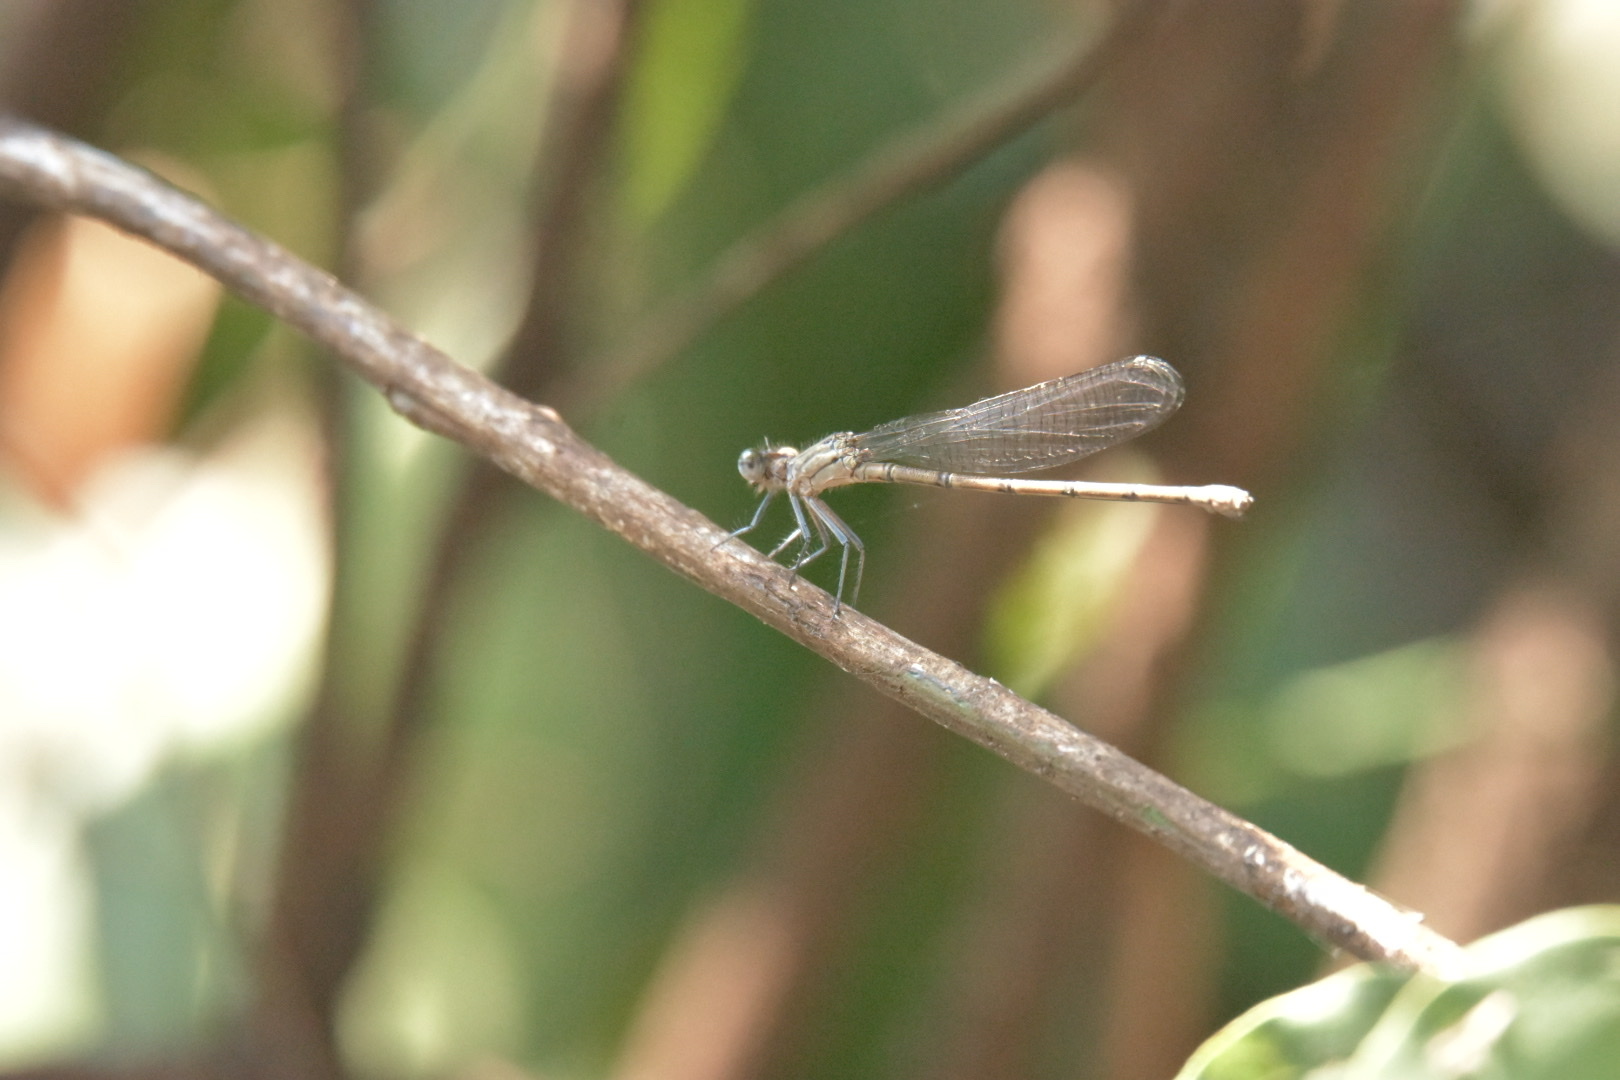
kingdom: Animalia
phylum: Arthropoda
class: Insecta
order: Odonata
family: Platycnemididae
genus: Mesocnemis
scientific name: Mesocnemis singularis
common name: Common riverjack
